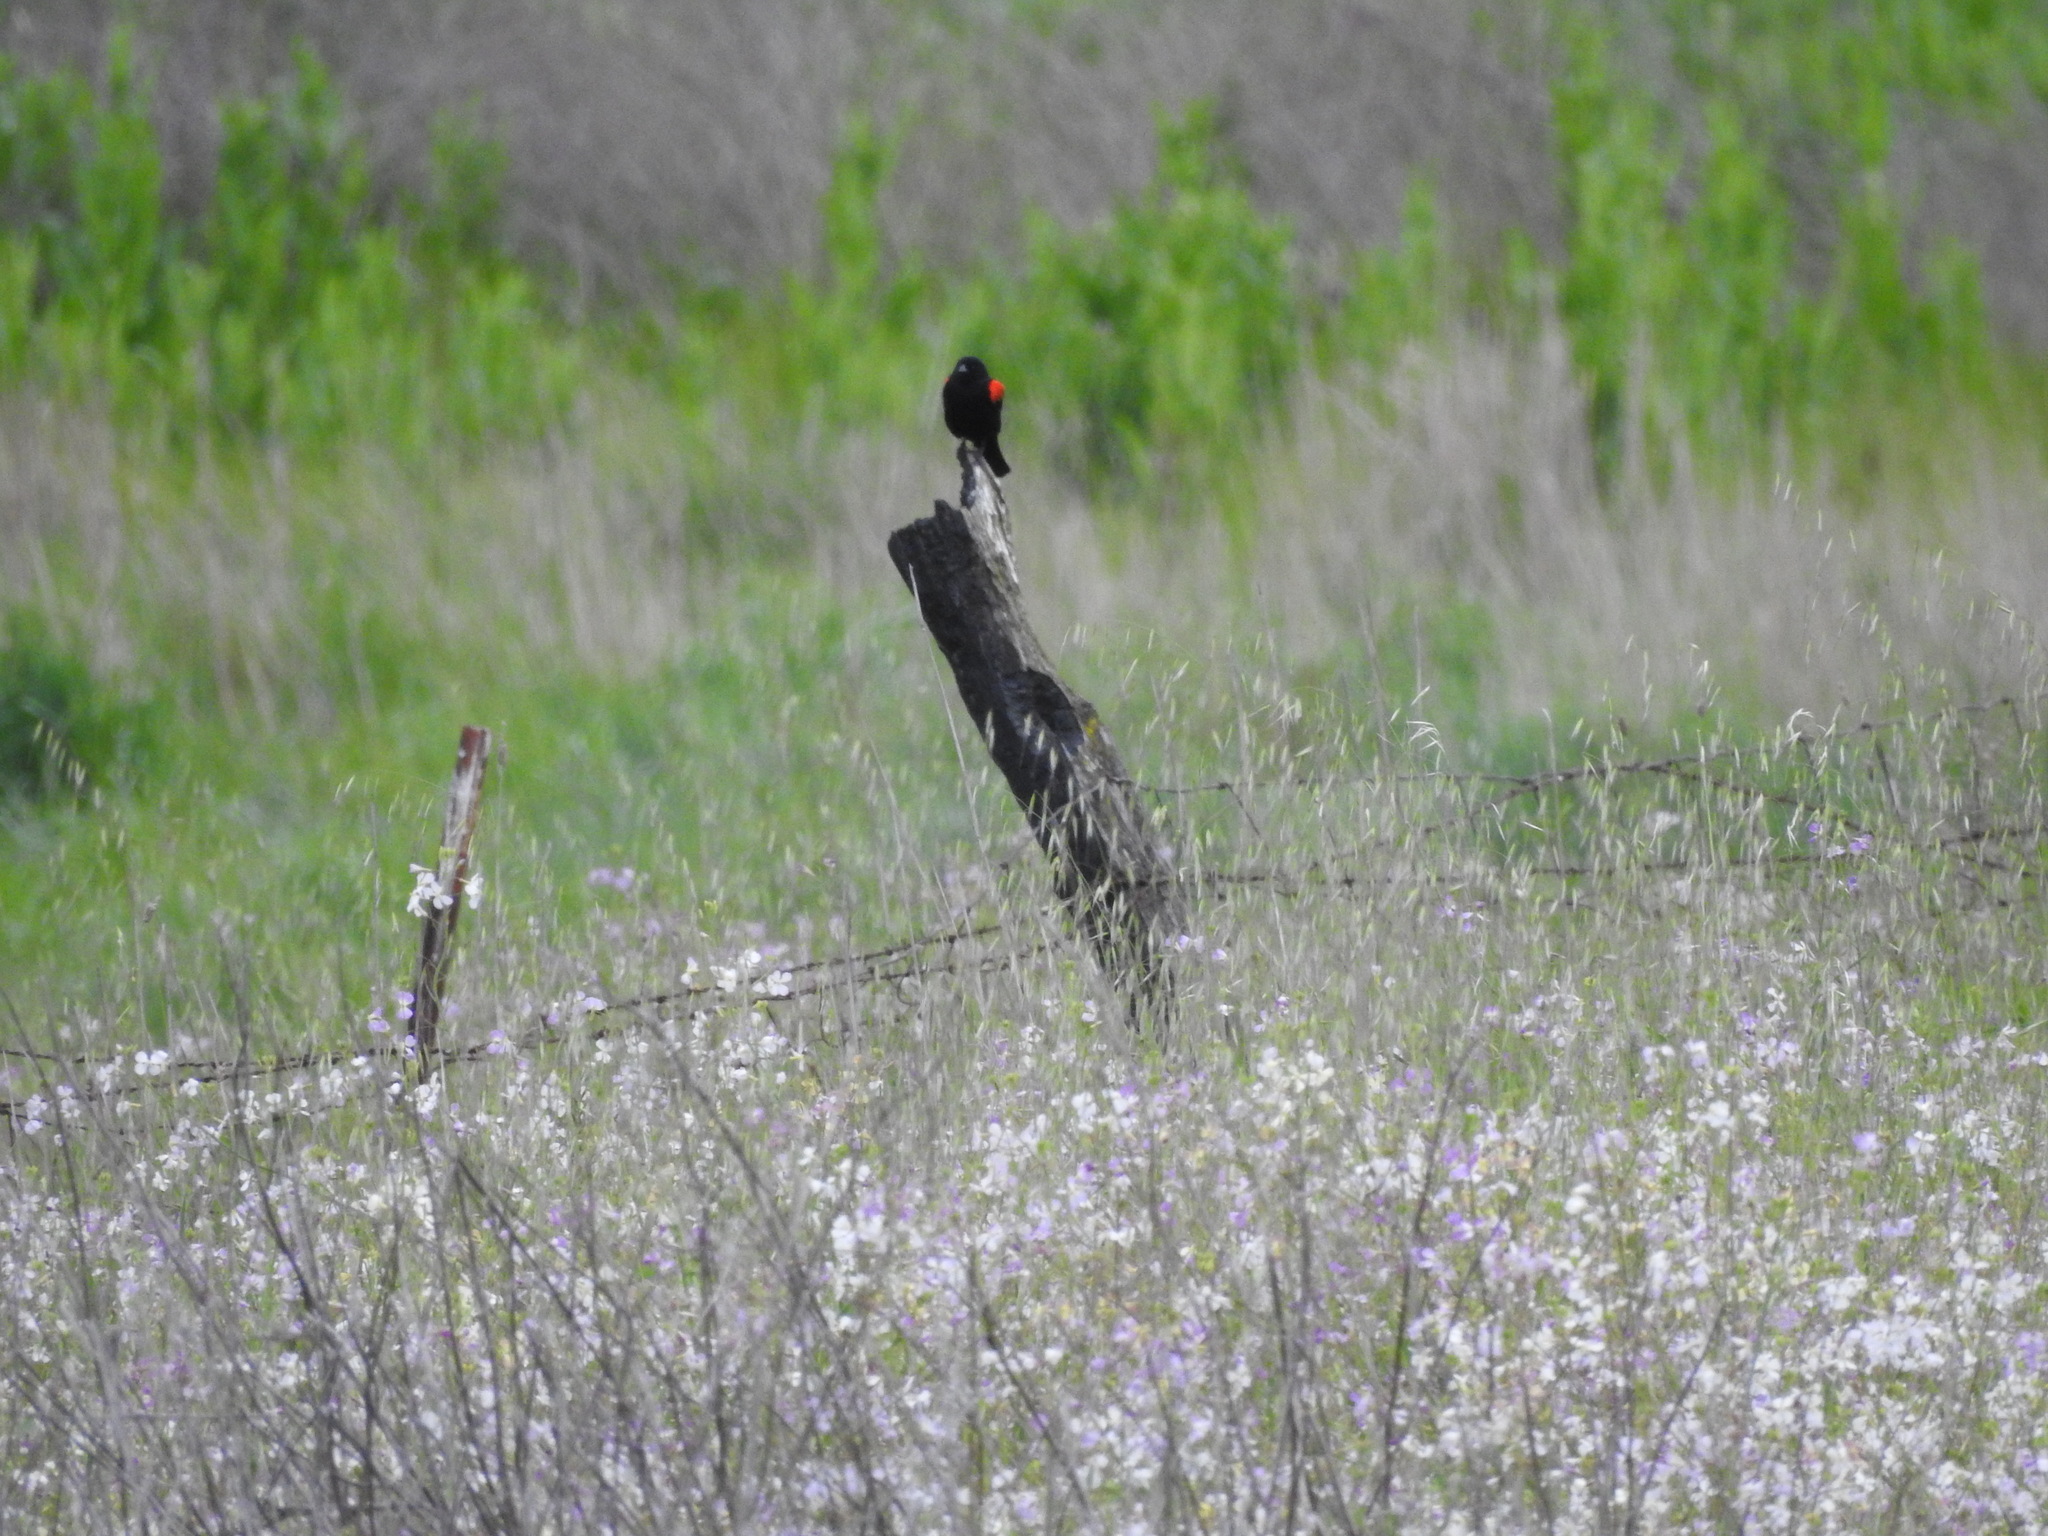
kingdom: Animalia
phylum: Chordata
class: Aves
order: Passeriformes
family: Icteridae
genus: Agelaius
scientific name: Agelaius phoeniceus
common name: Red-winged blackbird
